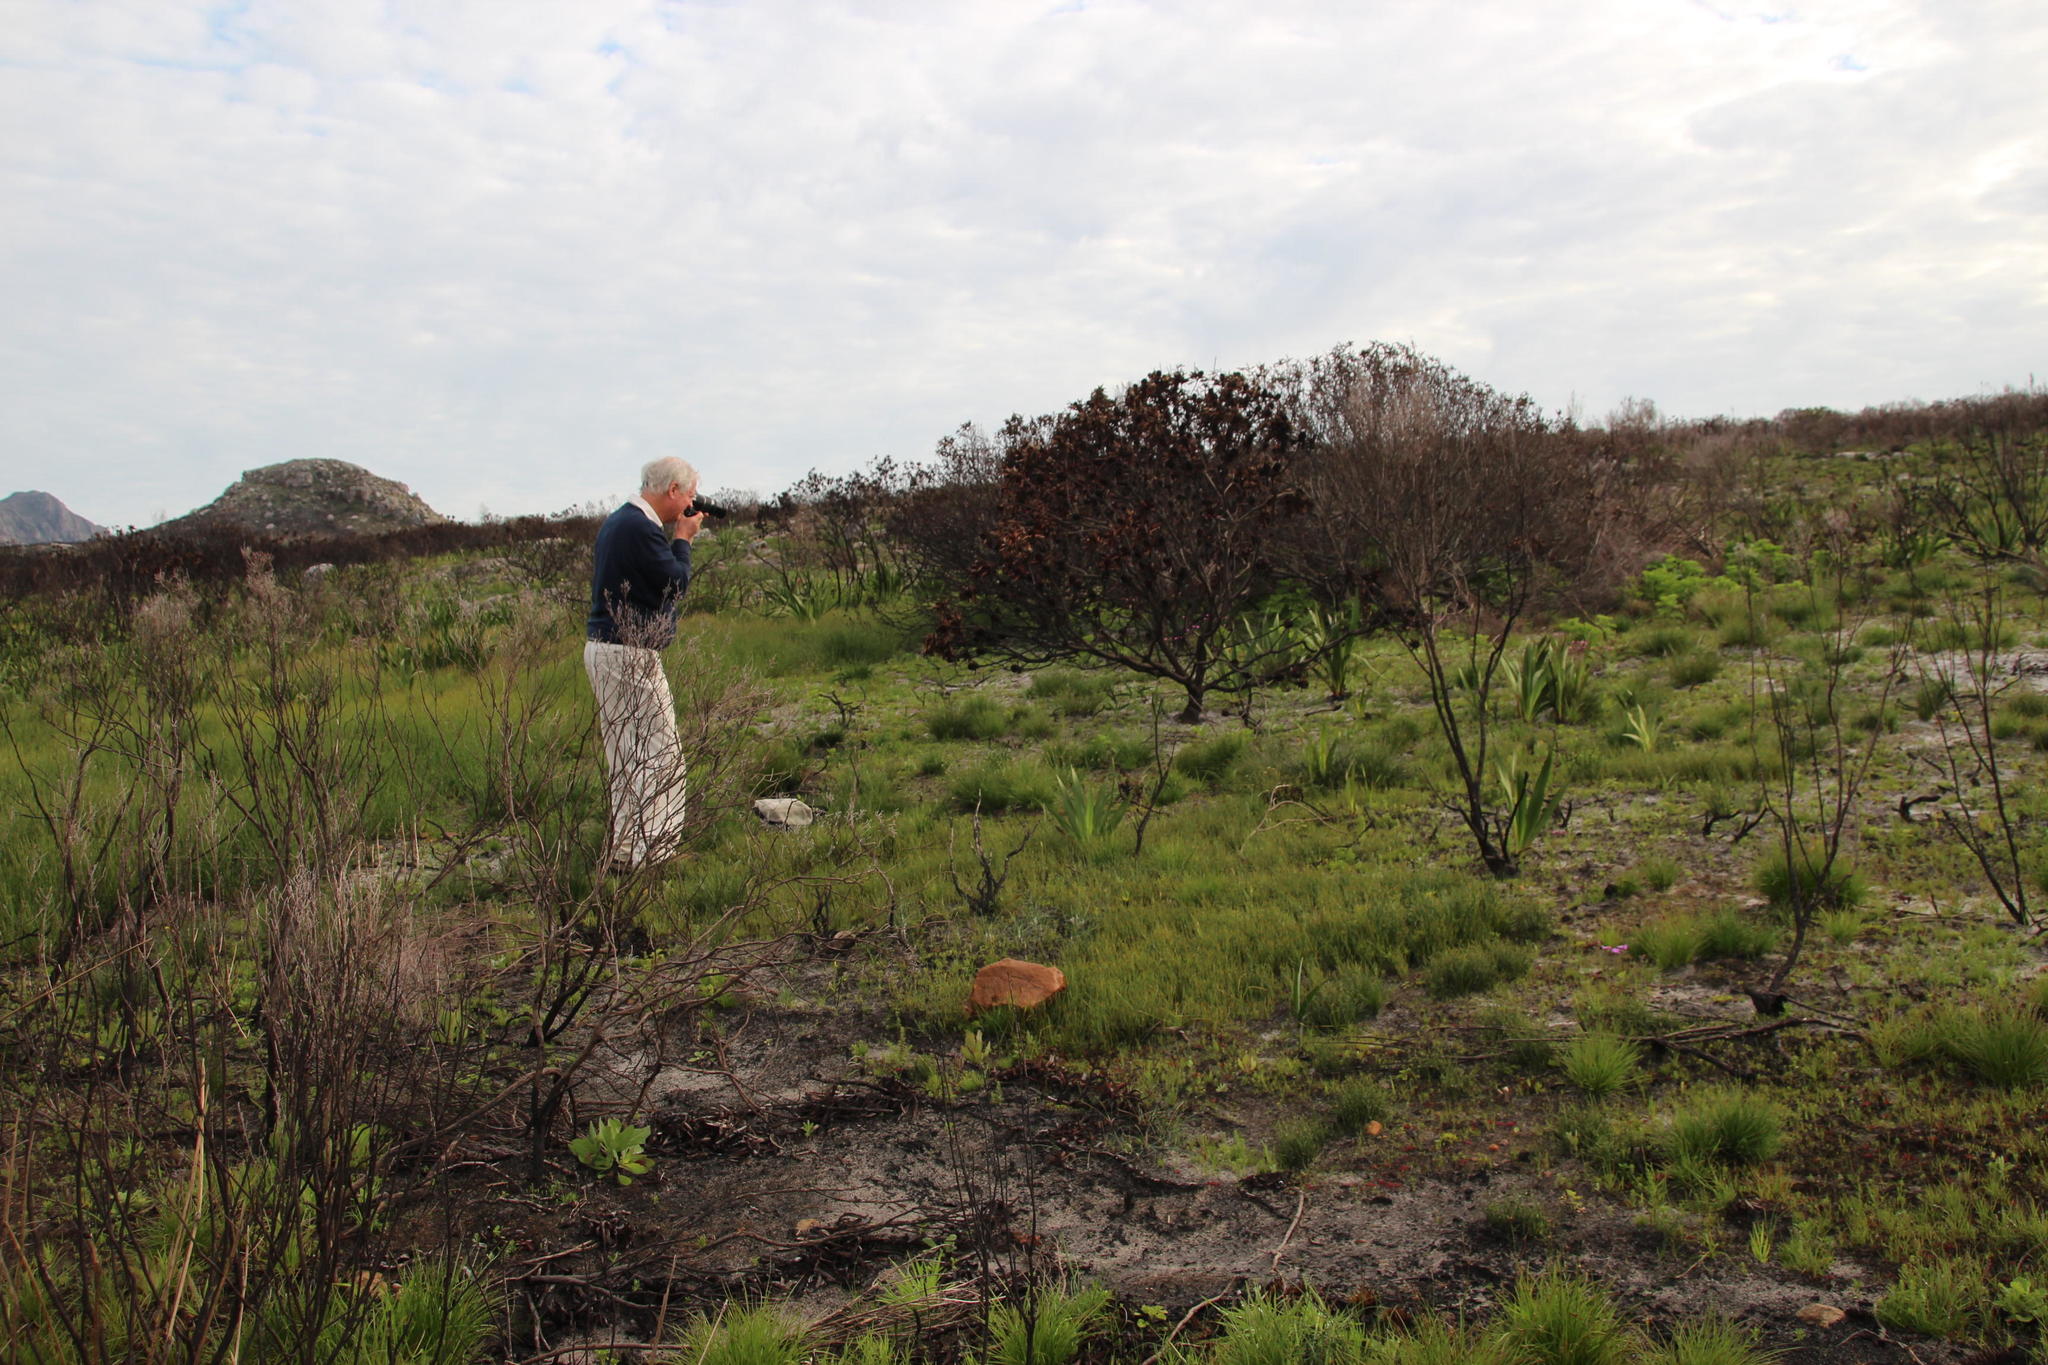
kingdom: Plantae
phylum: Tracheophyta
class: Magnoliopsida
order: Proteales
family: Proteaceae
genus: Leucadendron
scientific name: Leucadendron laureolum
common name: Golden sunshinebush
